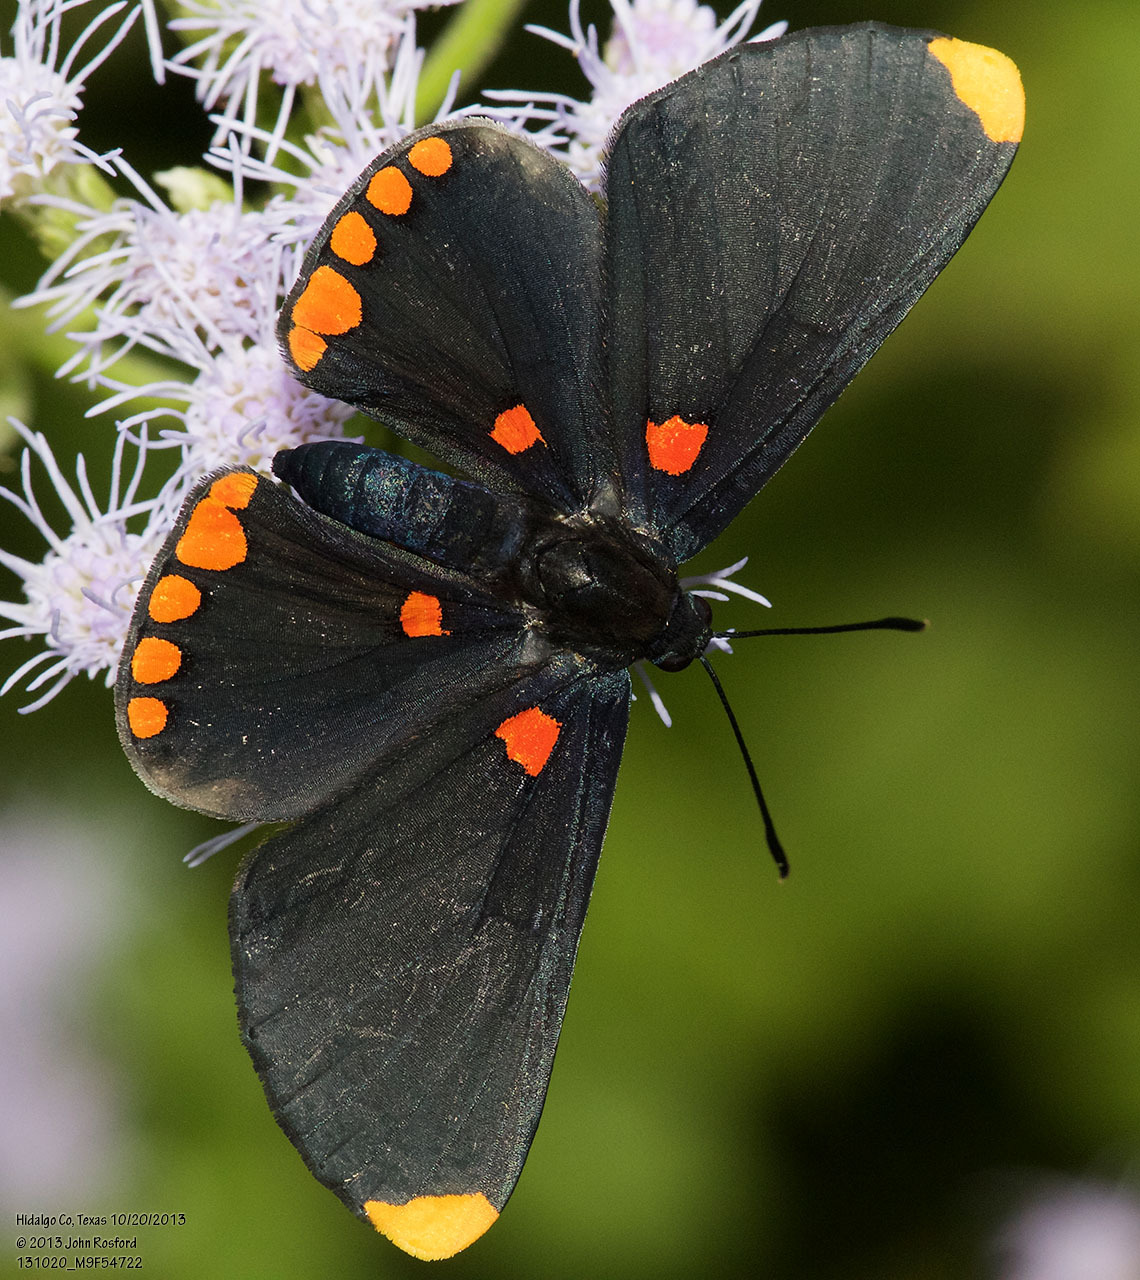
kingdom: Animalia
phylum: Arthropoda
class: Insecta
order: Lepidoptera
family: Lycaenidae
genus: Melanis
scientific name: Melanis pixe
